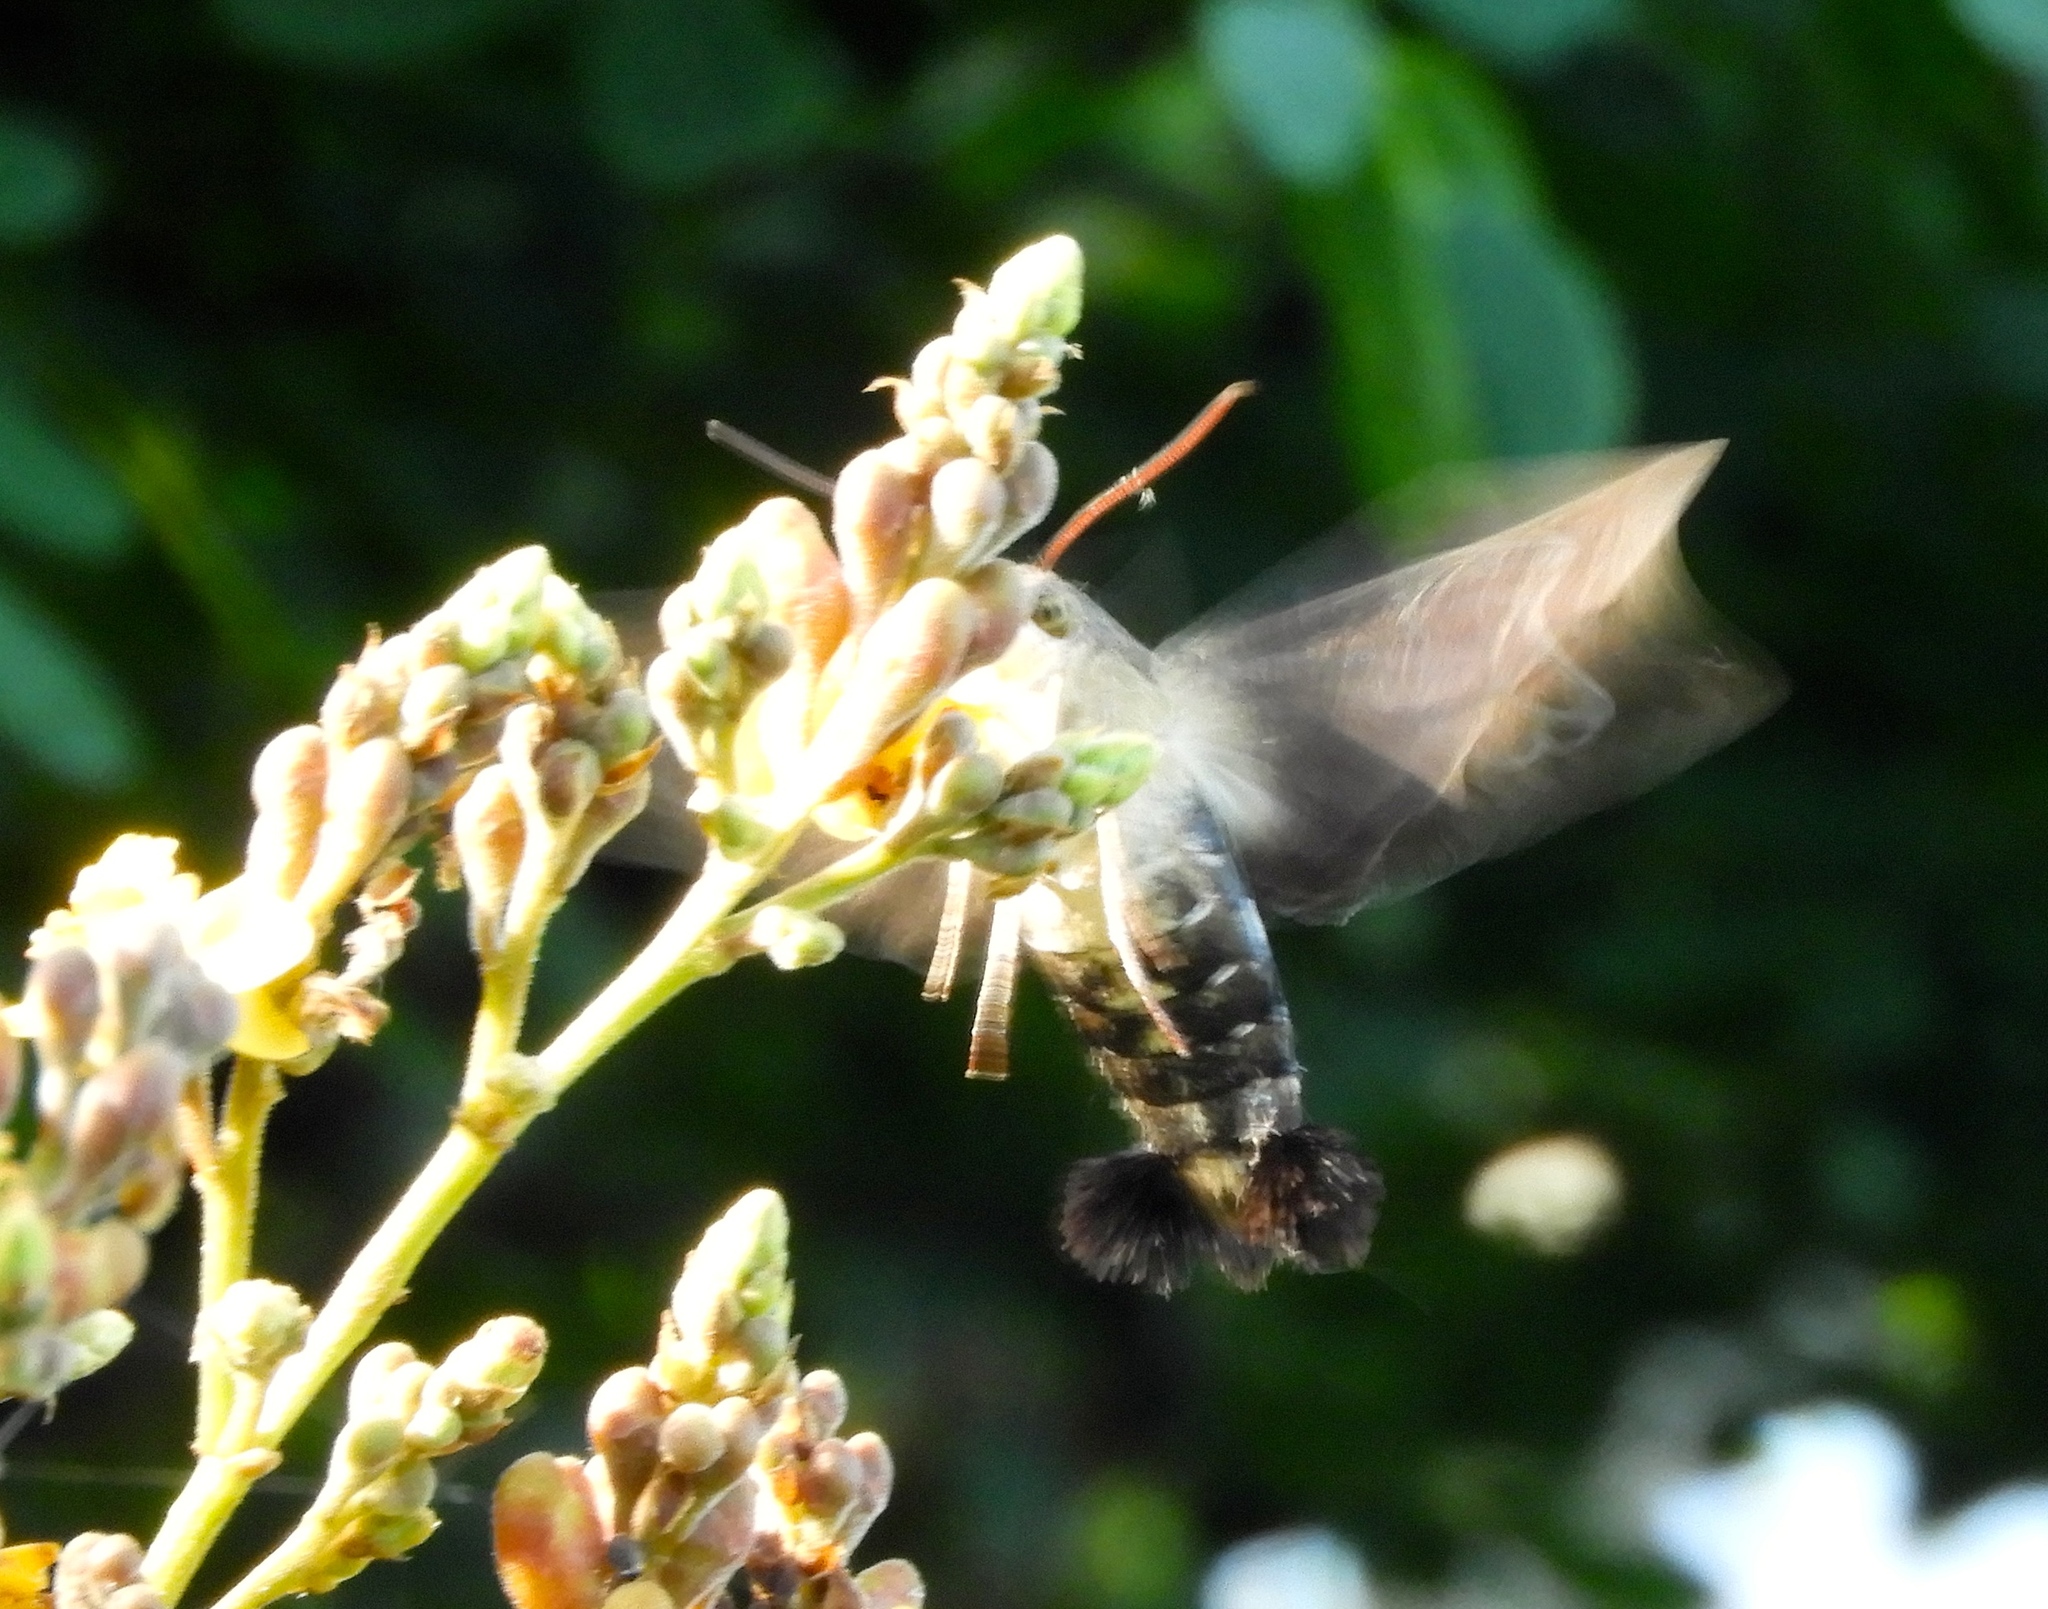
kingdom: Animalia
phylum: Arthropoda
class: Insecta
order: Lepidoptera
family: Sphingidae
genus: Aellopos
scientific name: Aellopos
